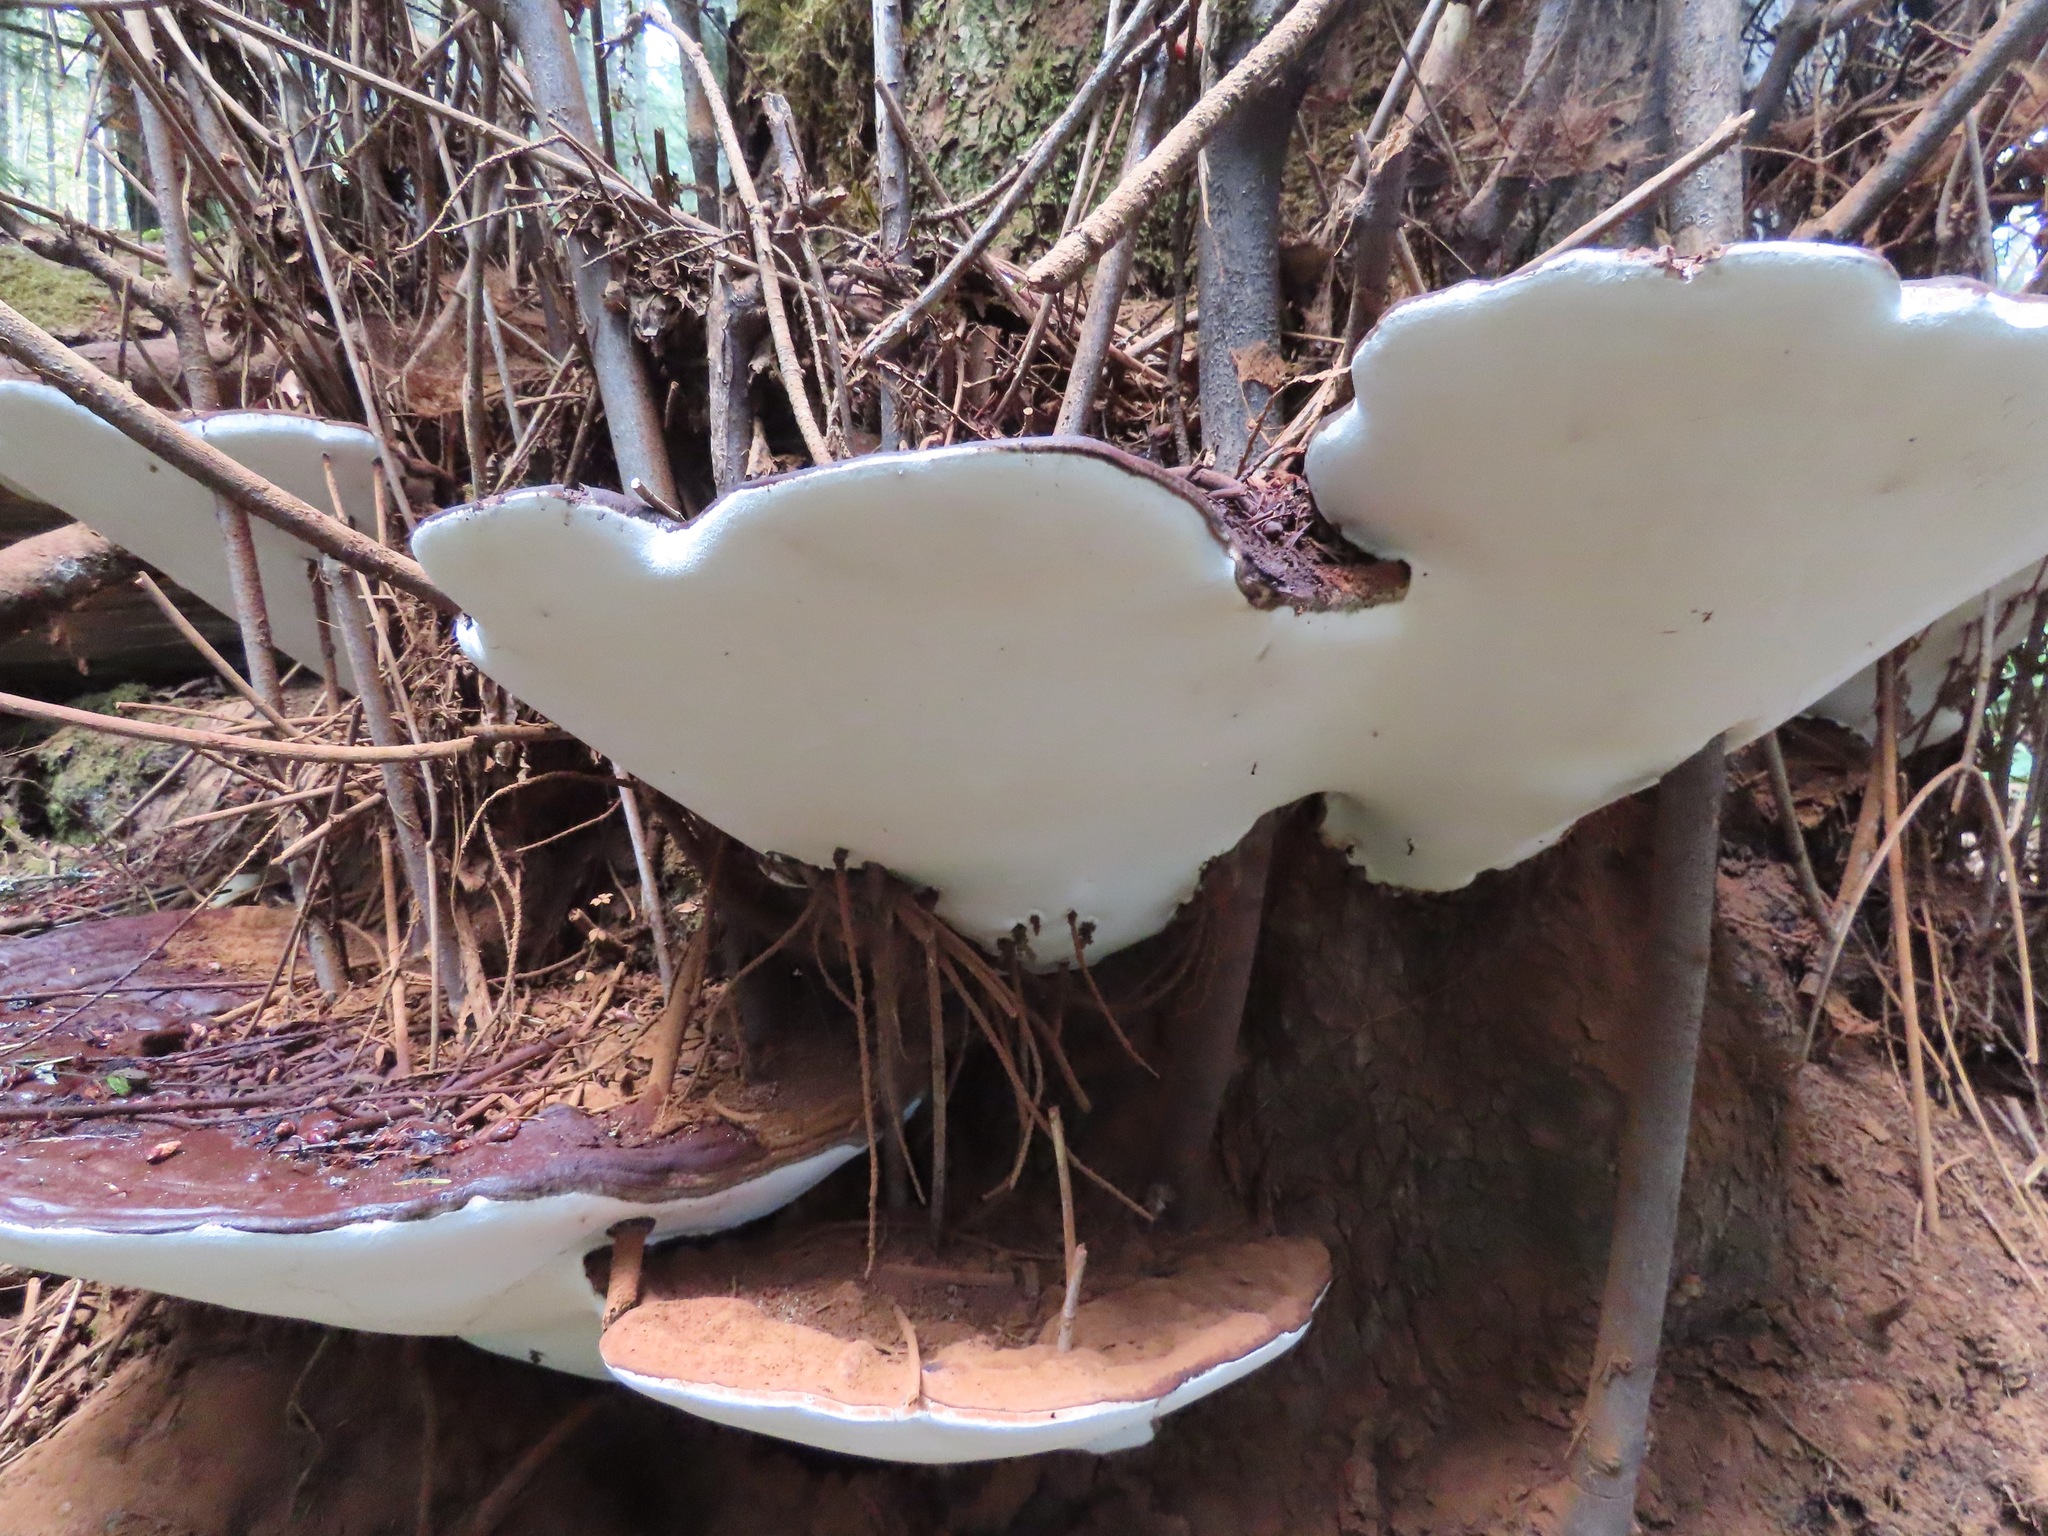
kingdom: Fungi
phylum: Basidiomycota
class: Agaricomycetes
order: Polyporales
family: Polyporaceae
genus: Ganoderma
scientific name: Ganoderma applanatum
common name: Artist's bracket
